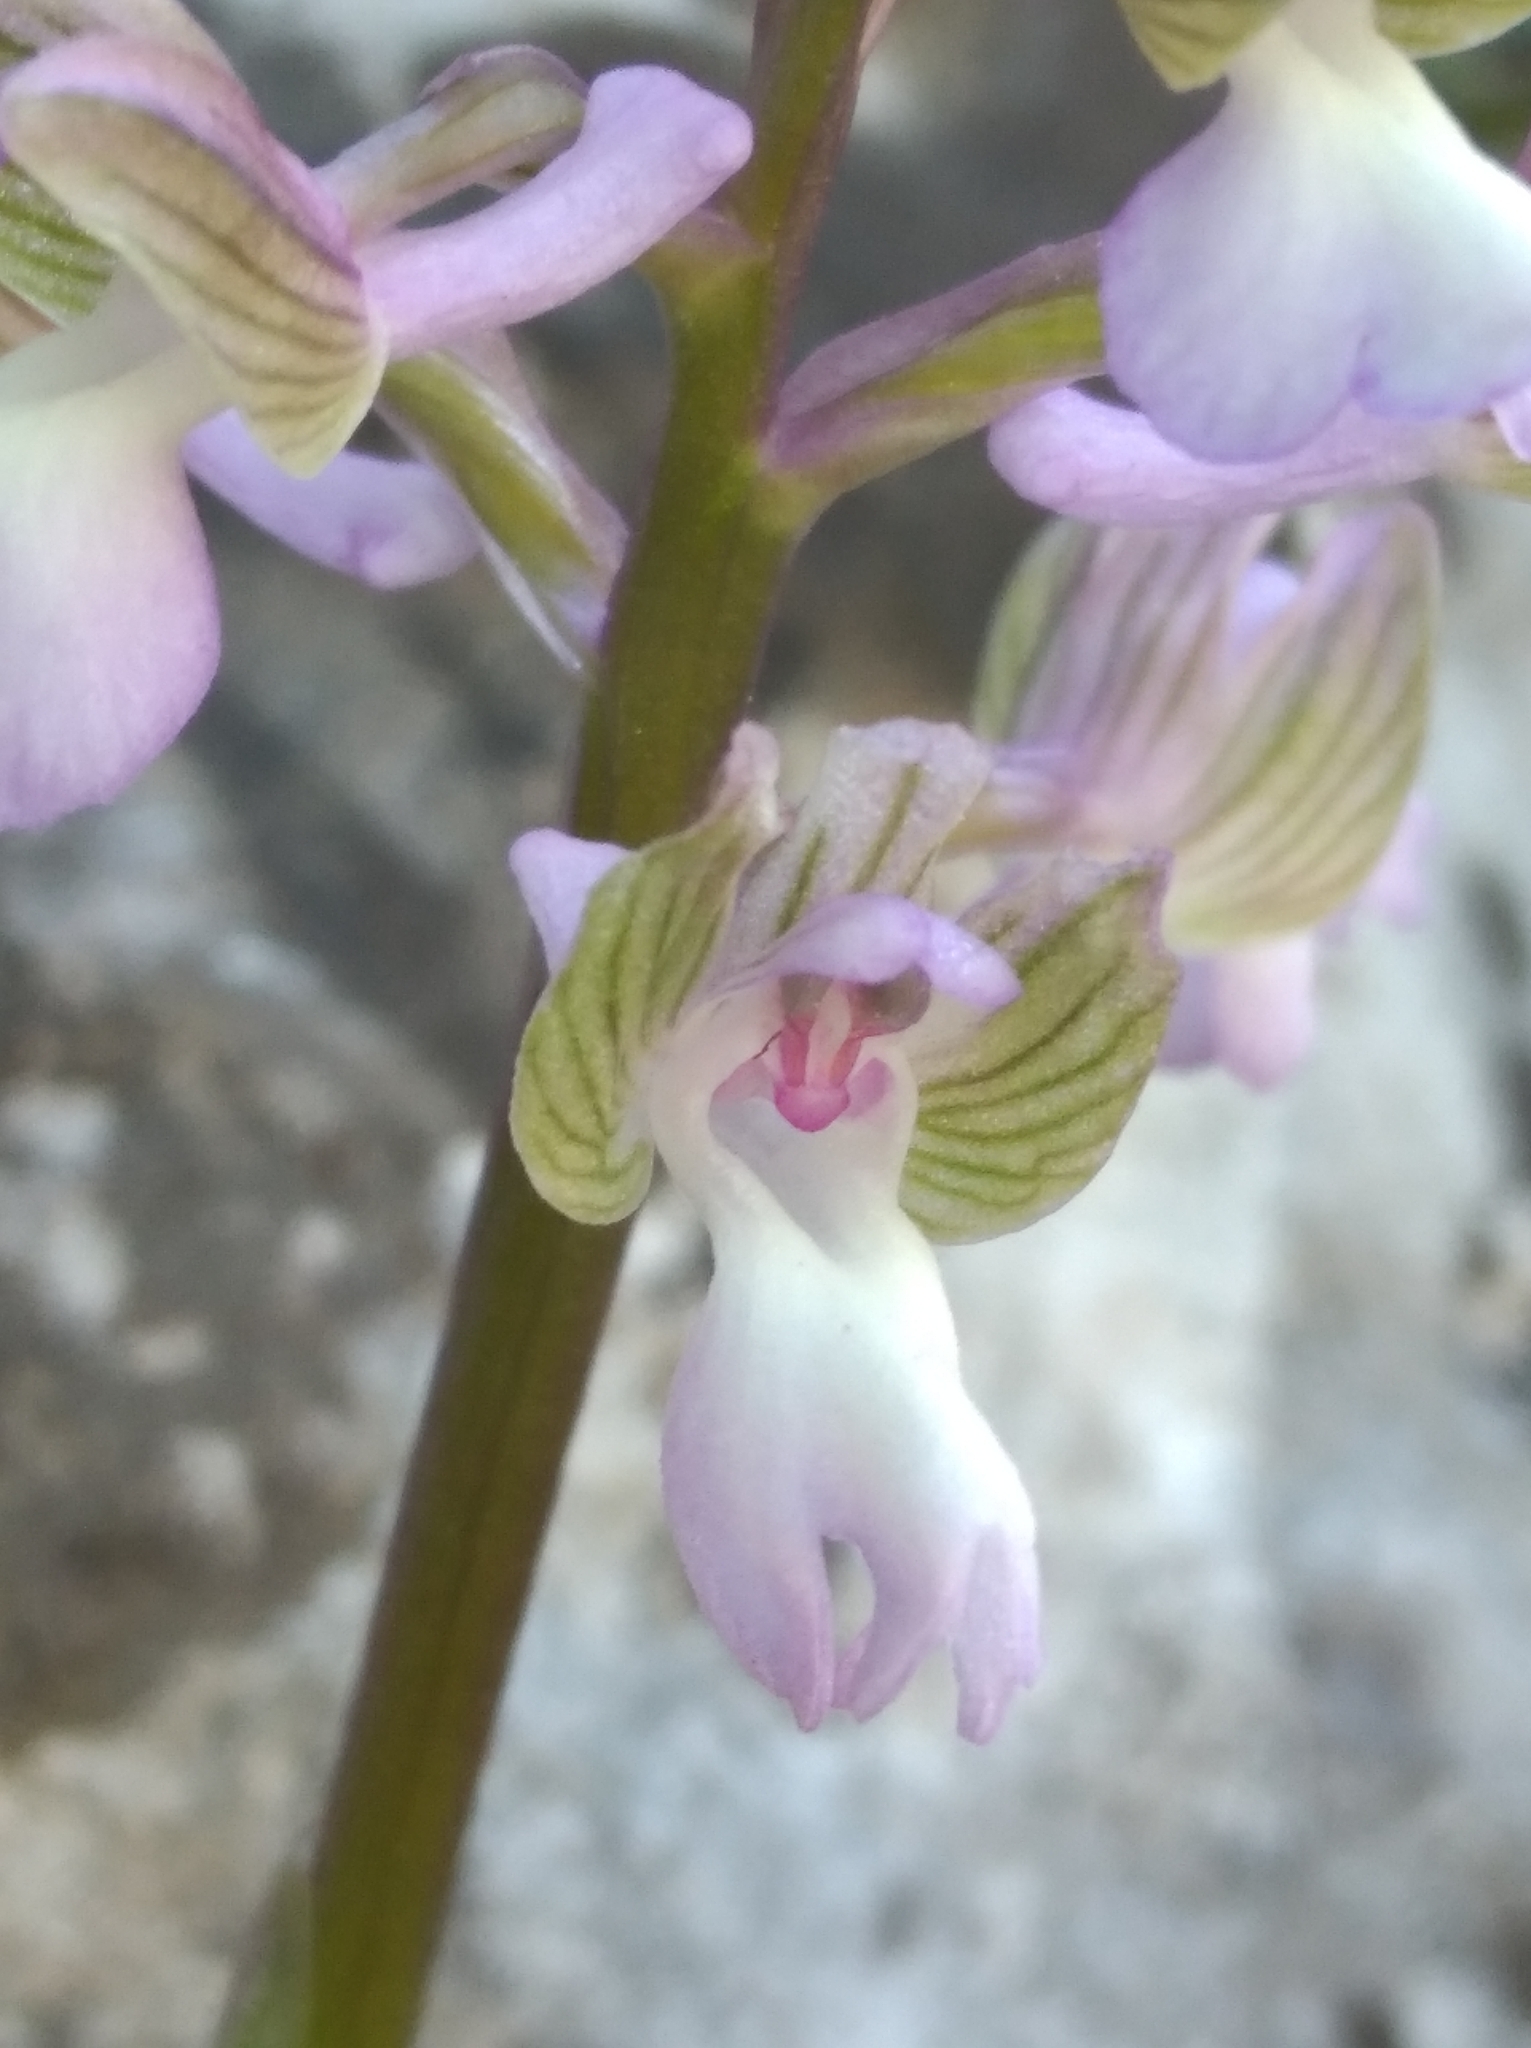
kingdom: Plantae
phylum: Tracheophyta
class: Liliopsida
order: Asparagales
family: Orchidaceae
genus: Anacamptis
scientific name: Anacamptis morio
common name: Green-winged orchid
